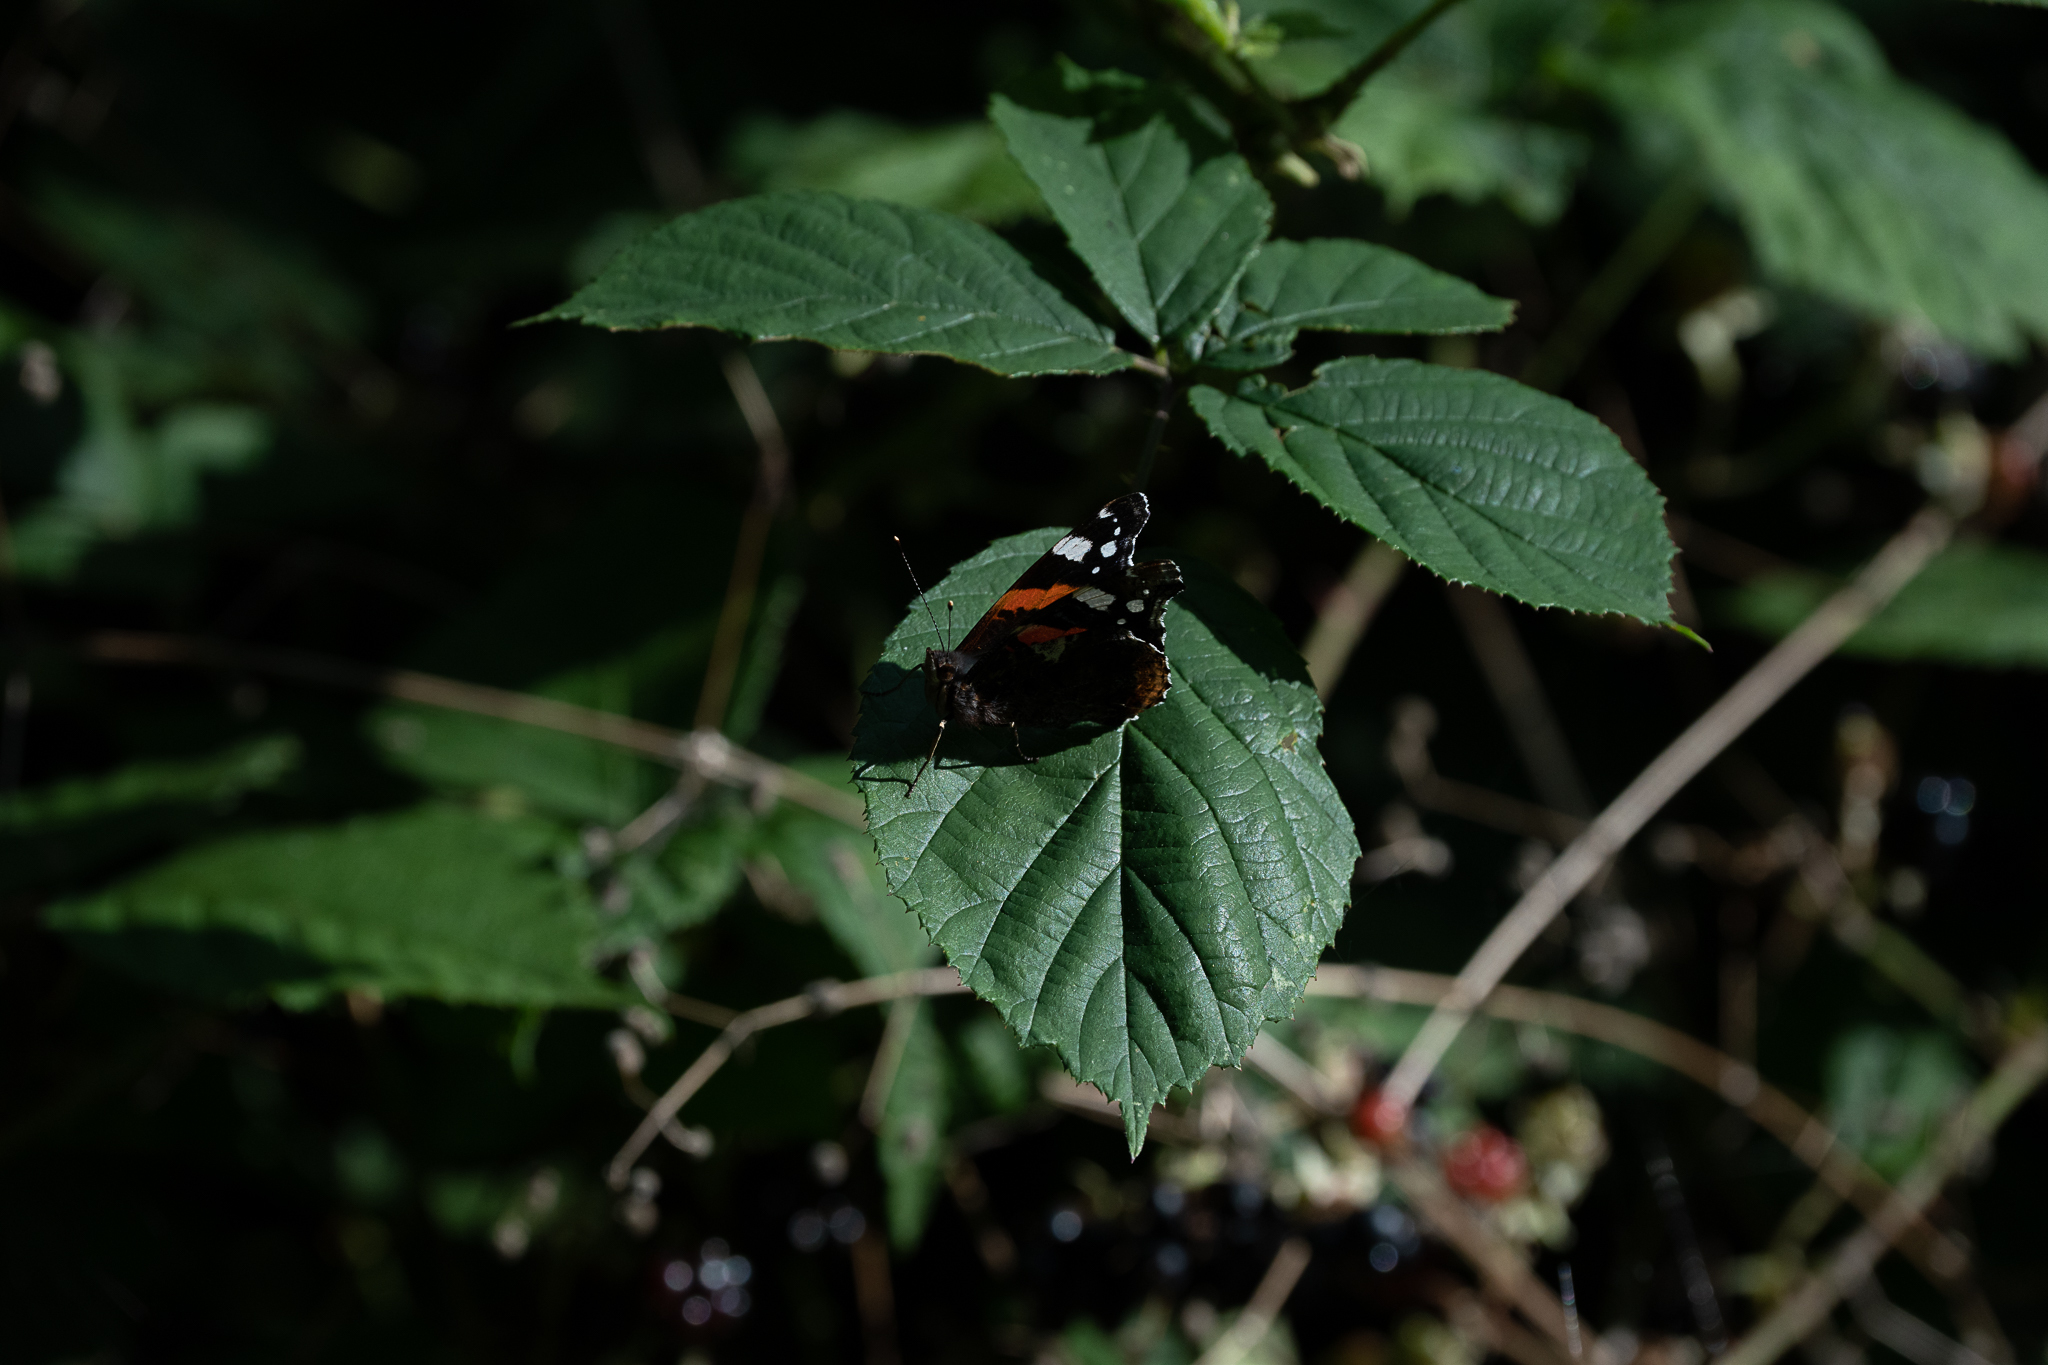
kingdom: Animalia
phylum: Arthropoda
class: Insecta
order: Lepidoptera
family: Nymphalidae
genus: Vanessa
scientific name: Vanessa atalanta
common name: Red admiral
